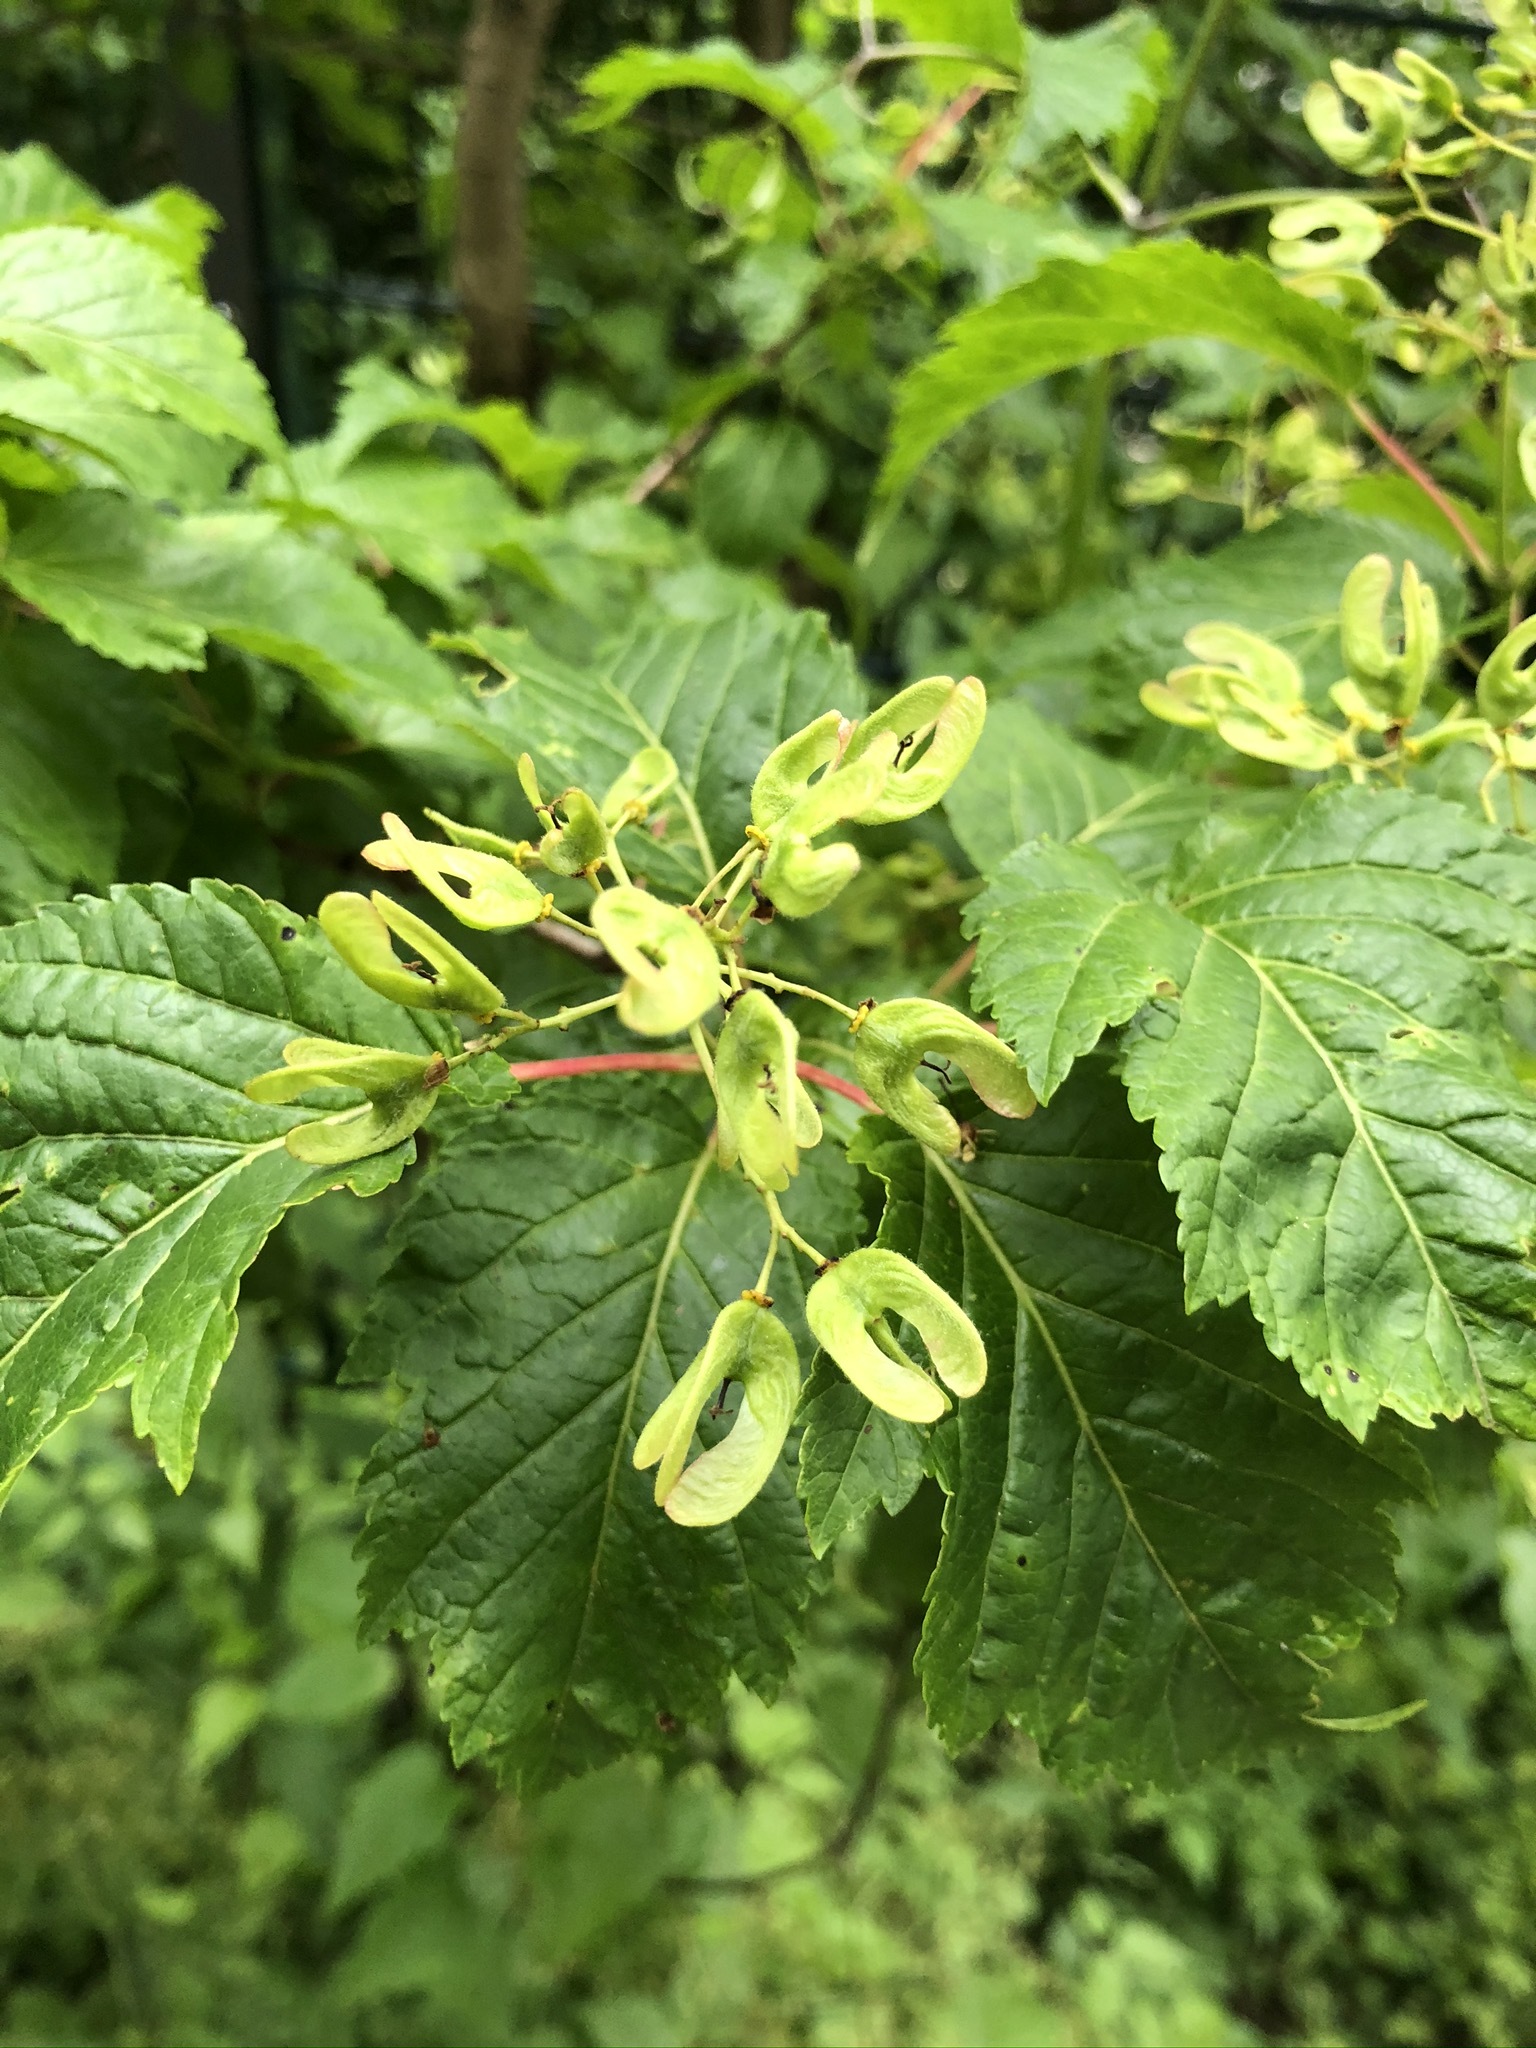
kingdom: Plantae
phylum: Tracheophyta
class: Magnoliopsida
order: Sapindales
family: Sapindaceae
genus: Acer
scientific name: Acer tataricum
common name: Tartar maple
